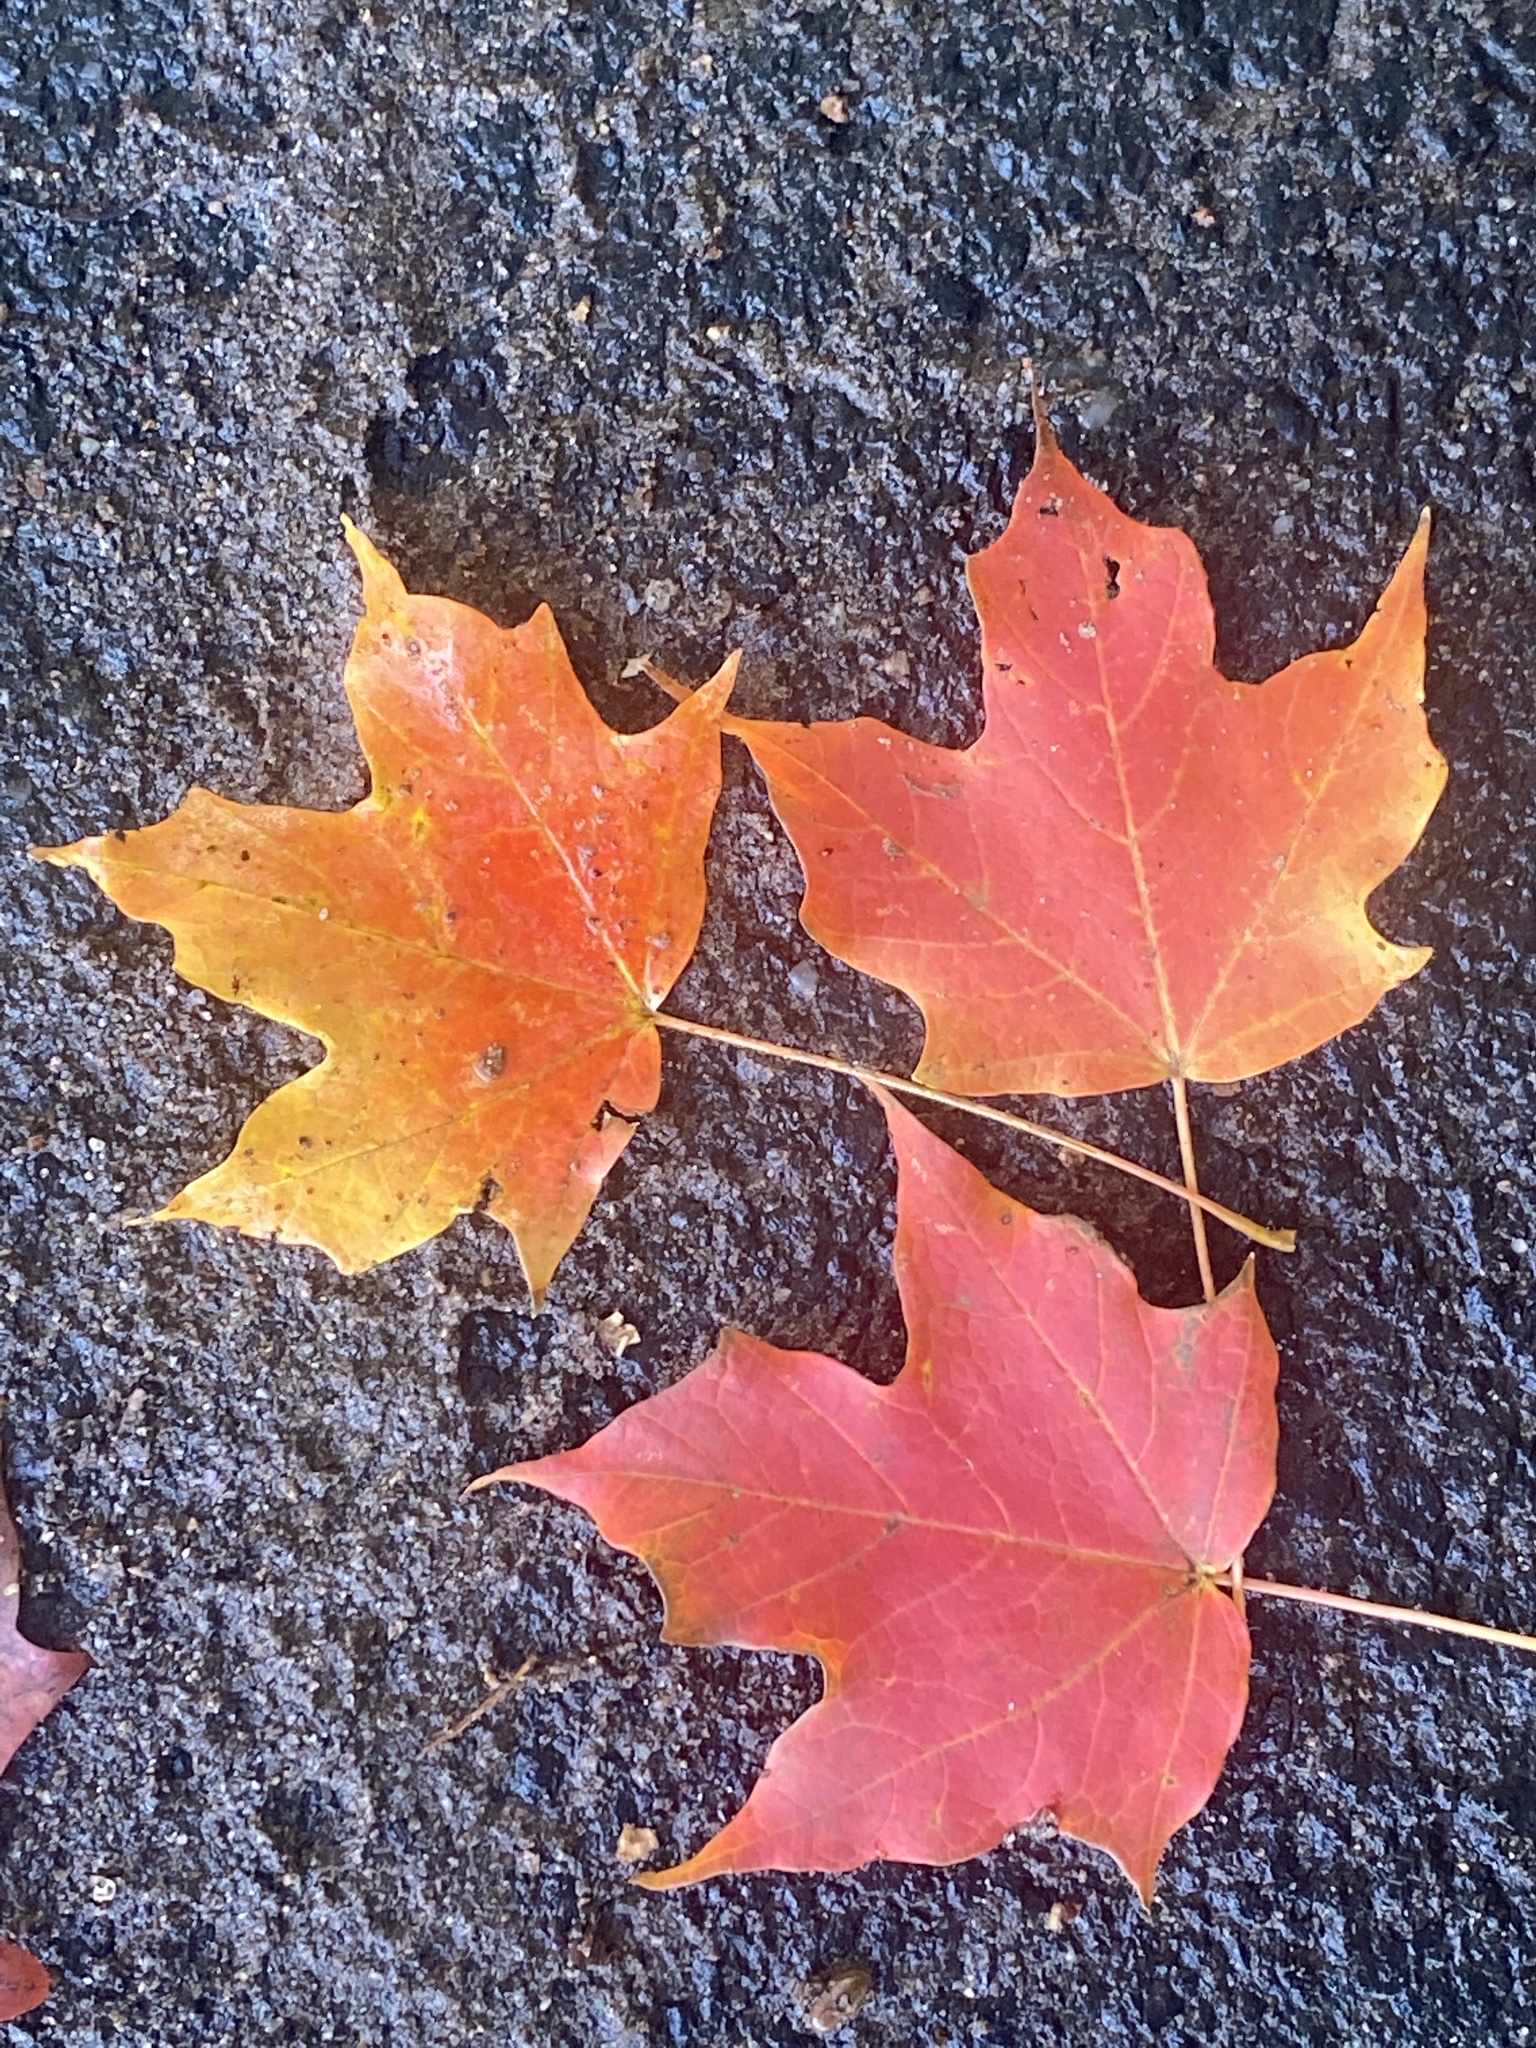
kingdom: Plantae
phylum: Tracheophyta
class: Magnoliopsida
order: Sapindales
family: Sapindaceae
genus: Acer
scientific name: Acer saccharum
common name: Sugar maple
